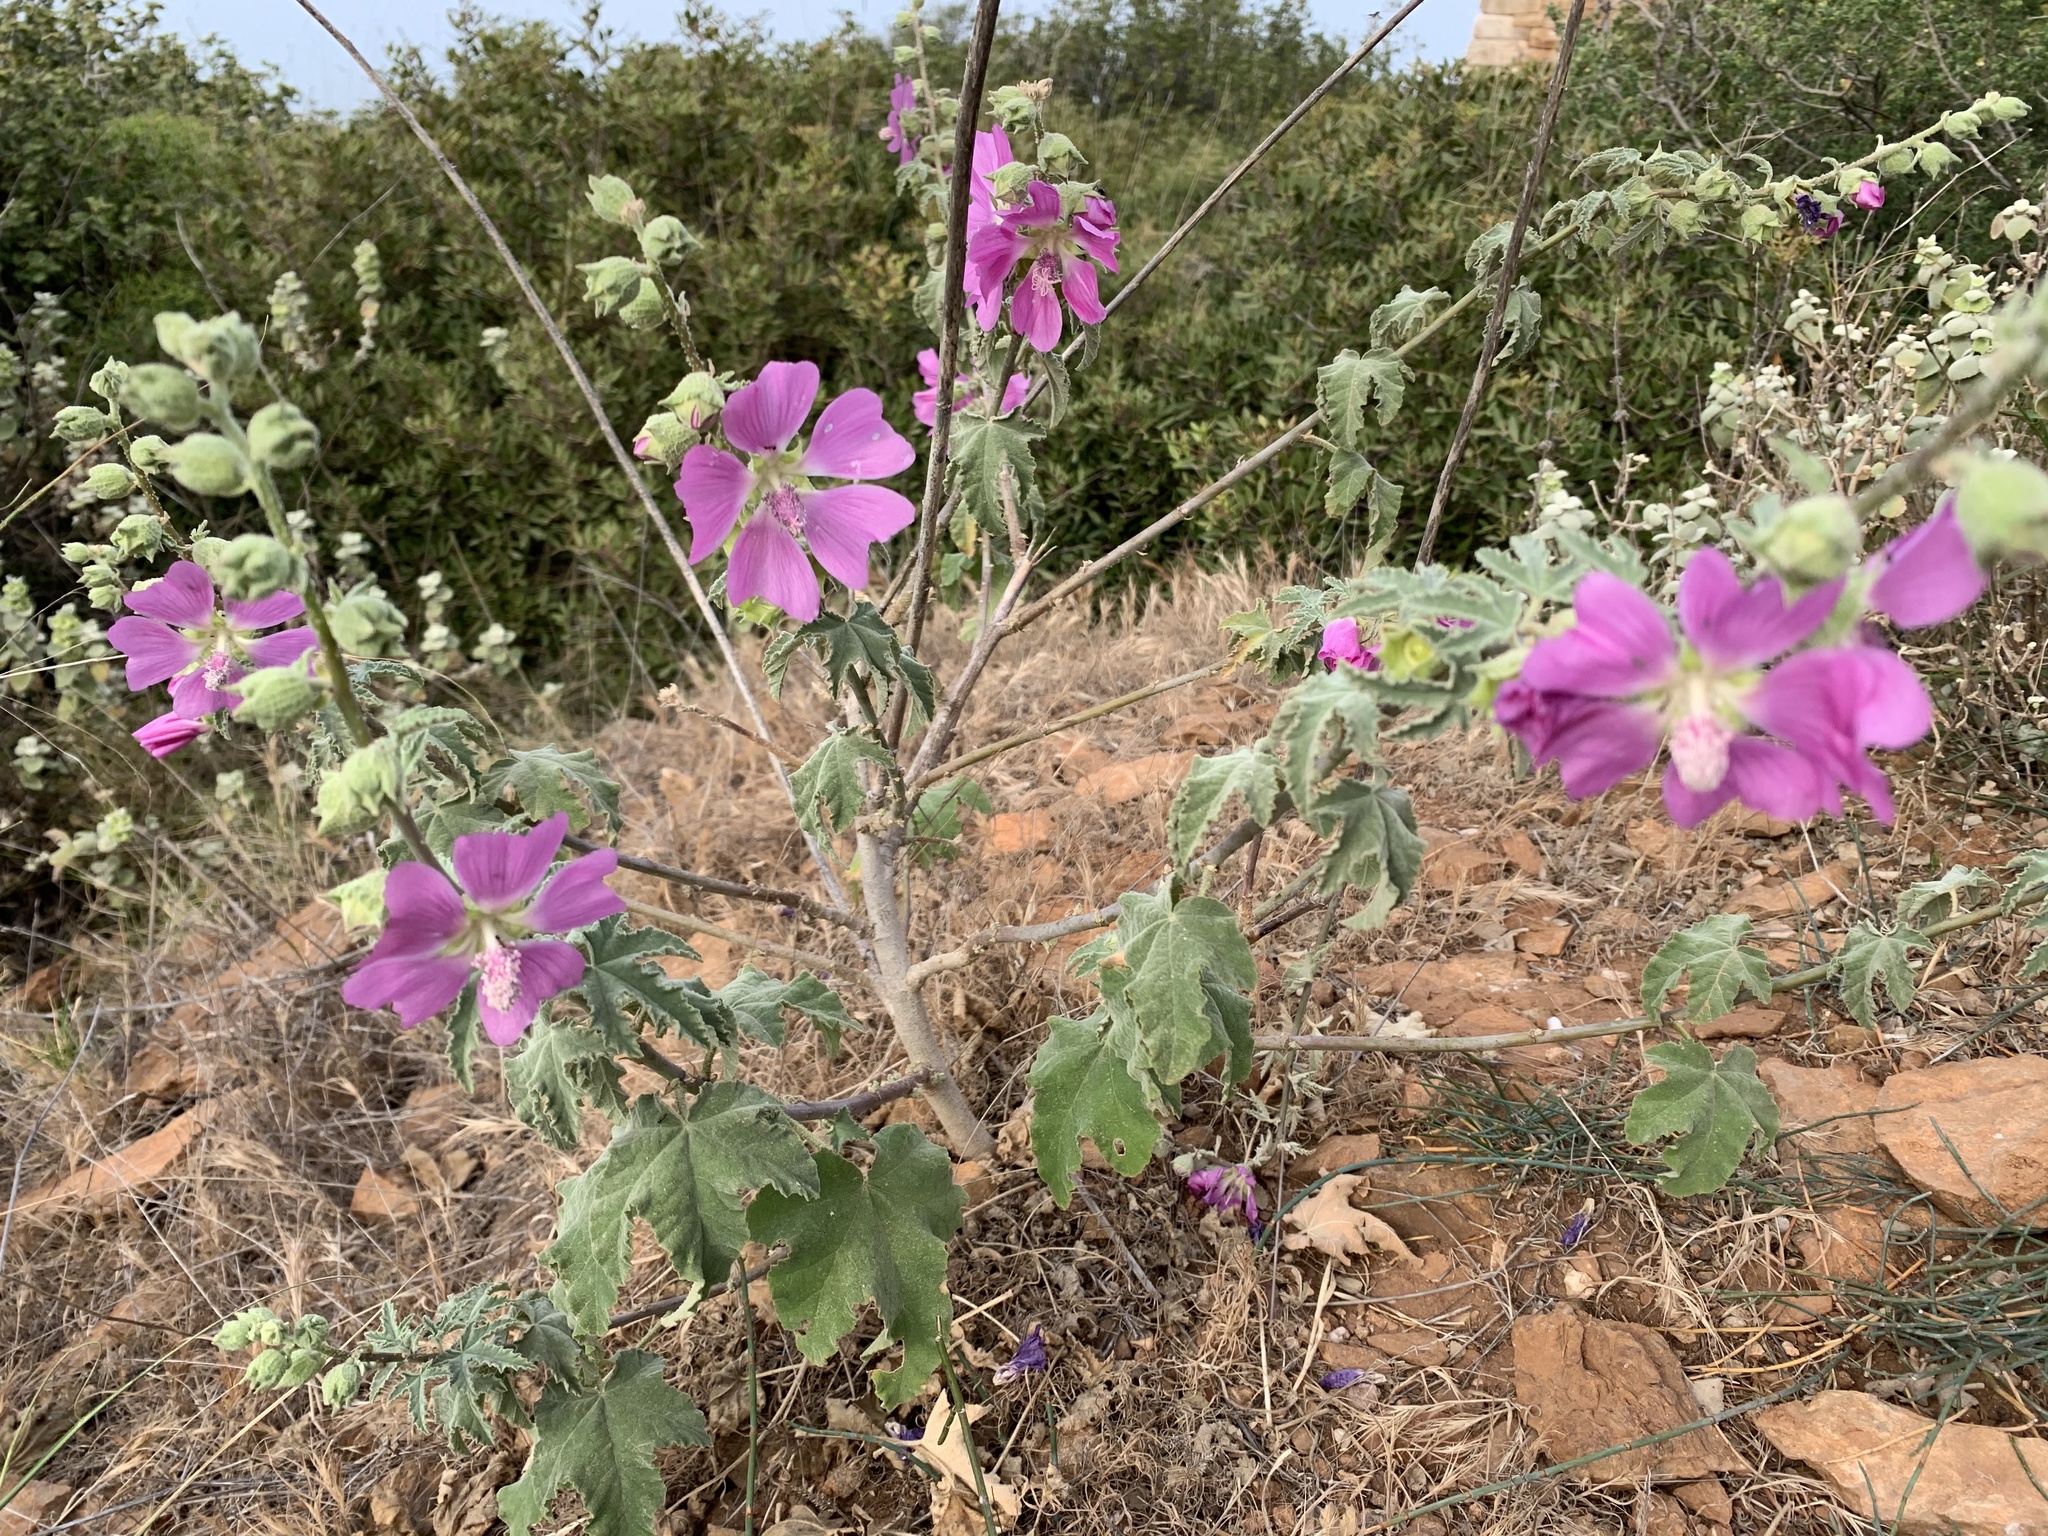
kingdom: Plantae
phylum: Tracheophyta
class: Magnoliopsida
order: Malvales
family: Malvaceae
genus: Malva
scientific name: Malva unguiculata
